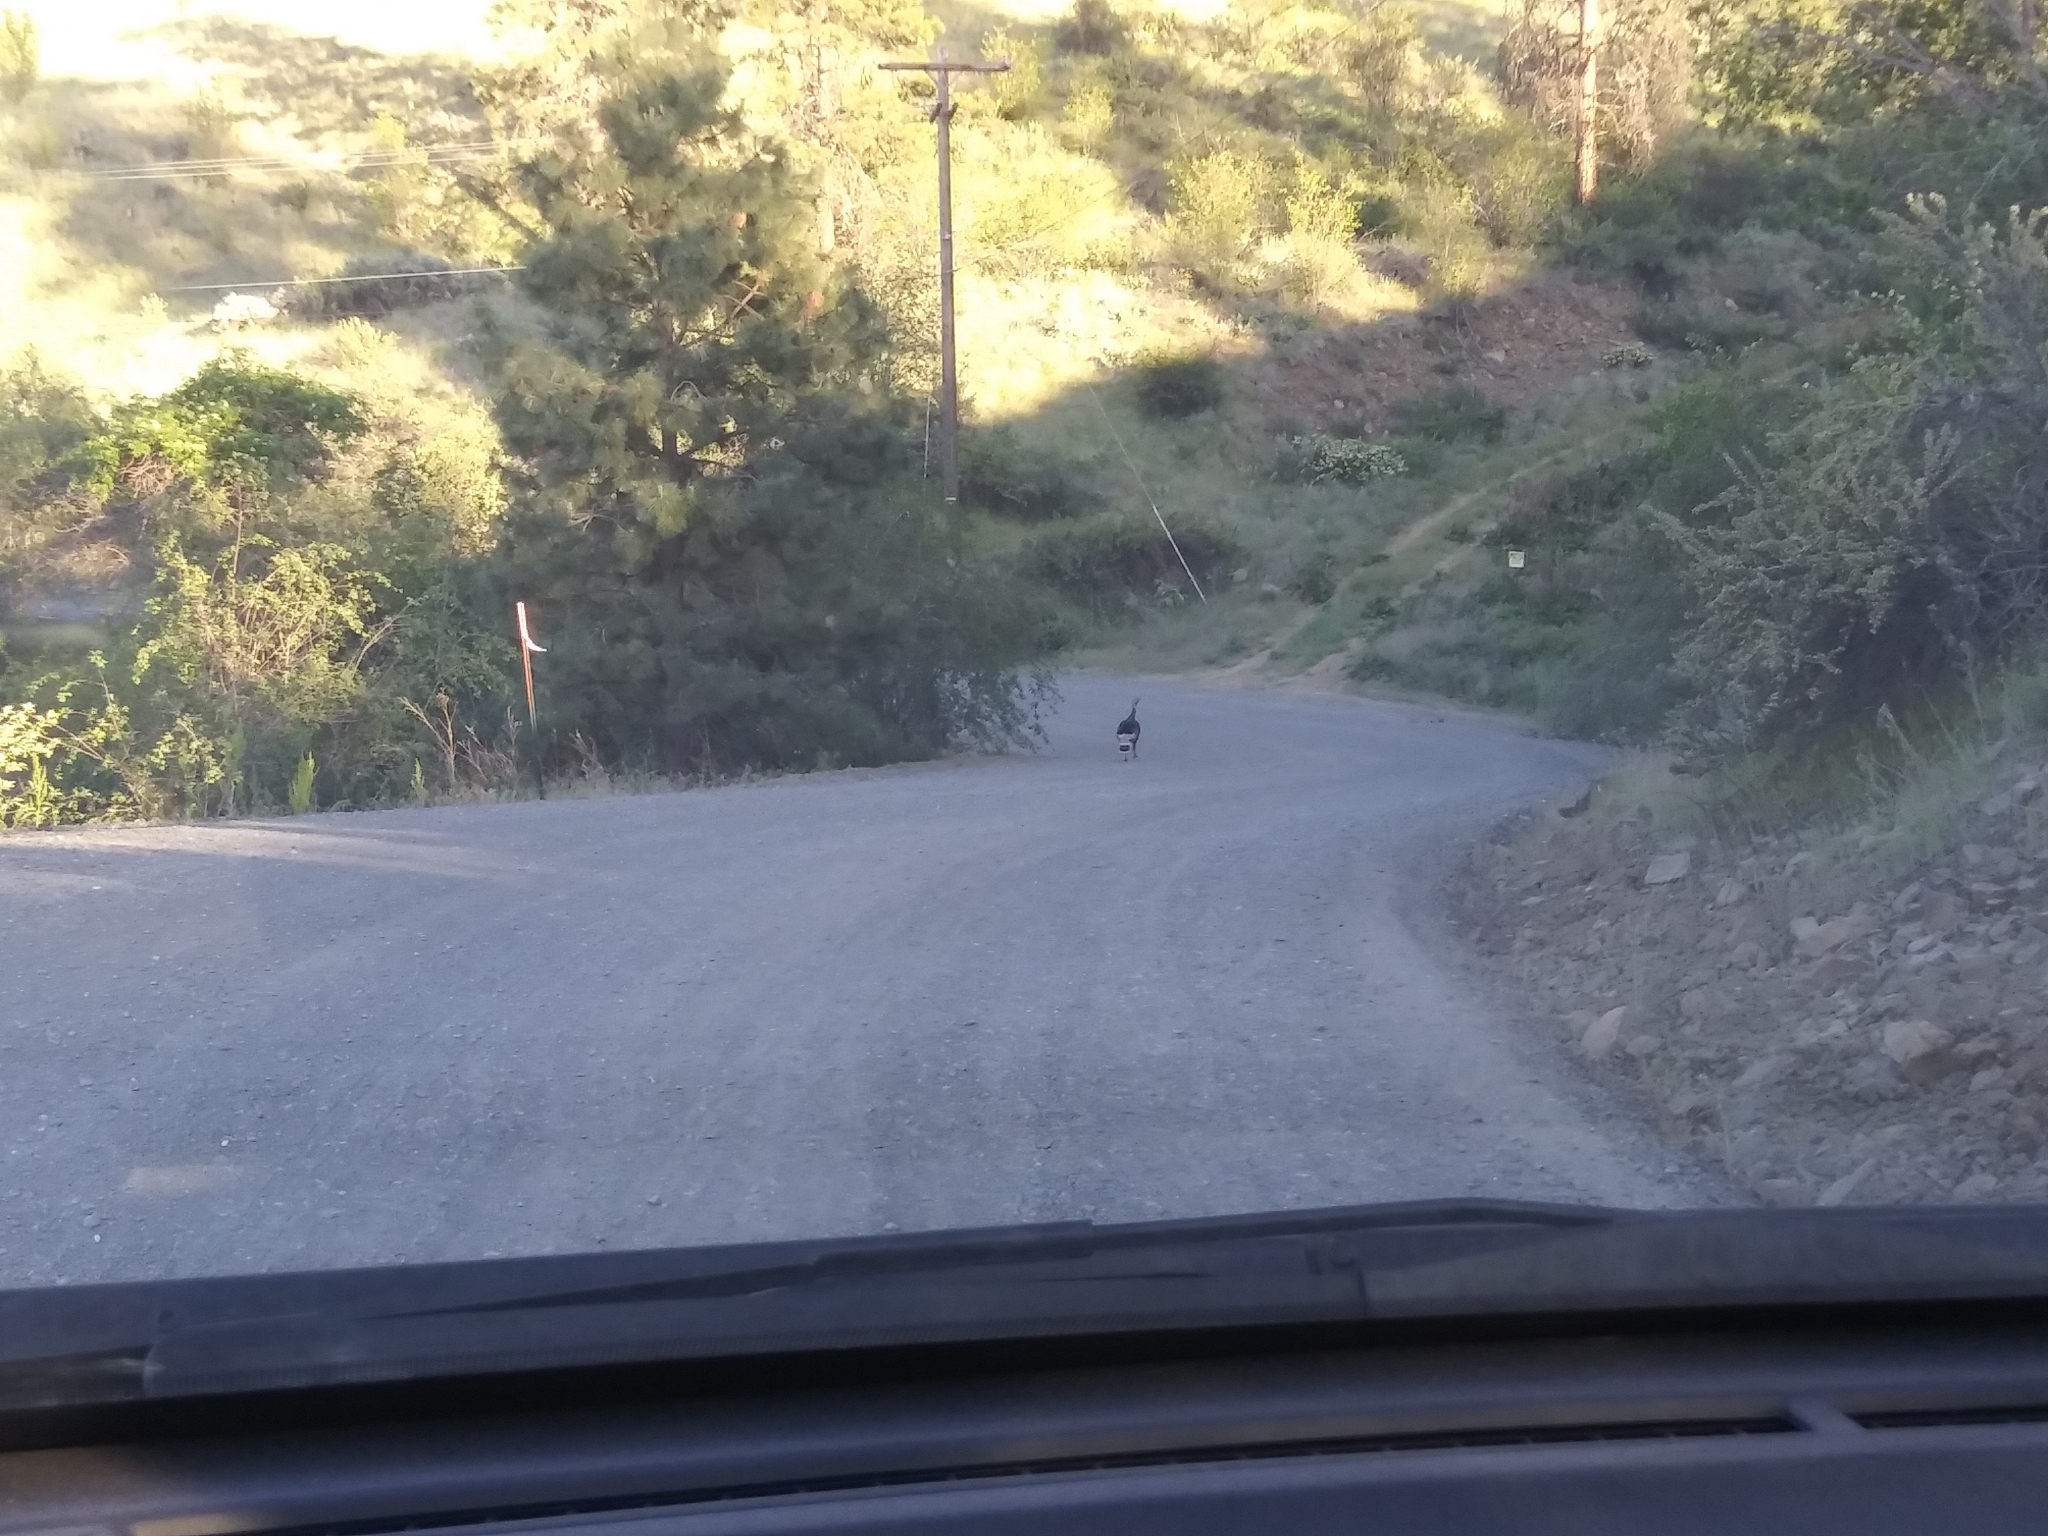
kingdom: Animalia
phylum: Chordata
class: Aves
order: Galliformes
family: Phasianidae
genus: Meleagris
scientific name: Meleagris gallopavo
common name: Wild turkey
